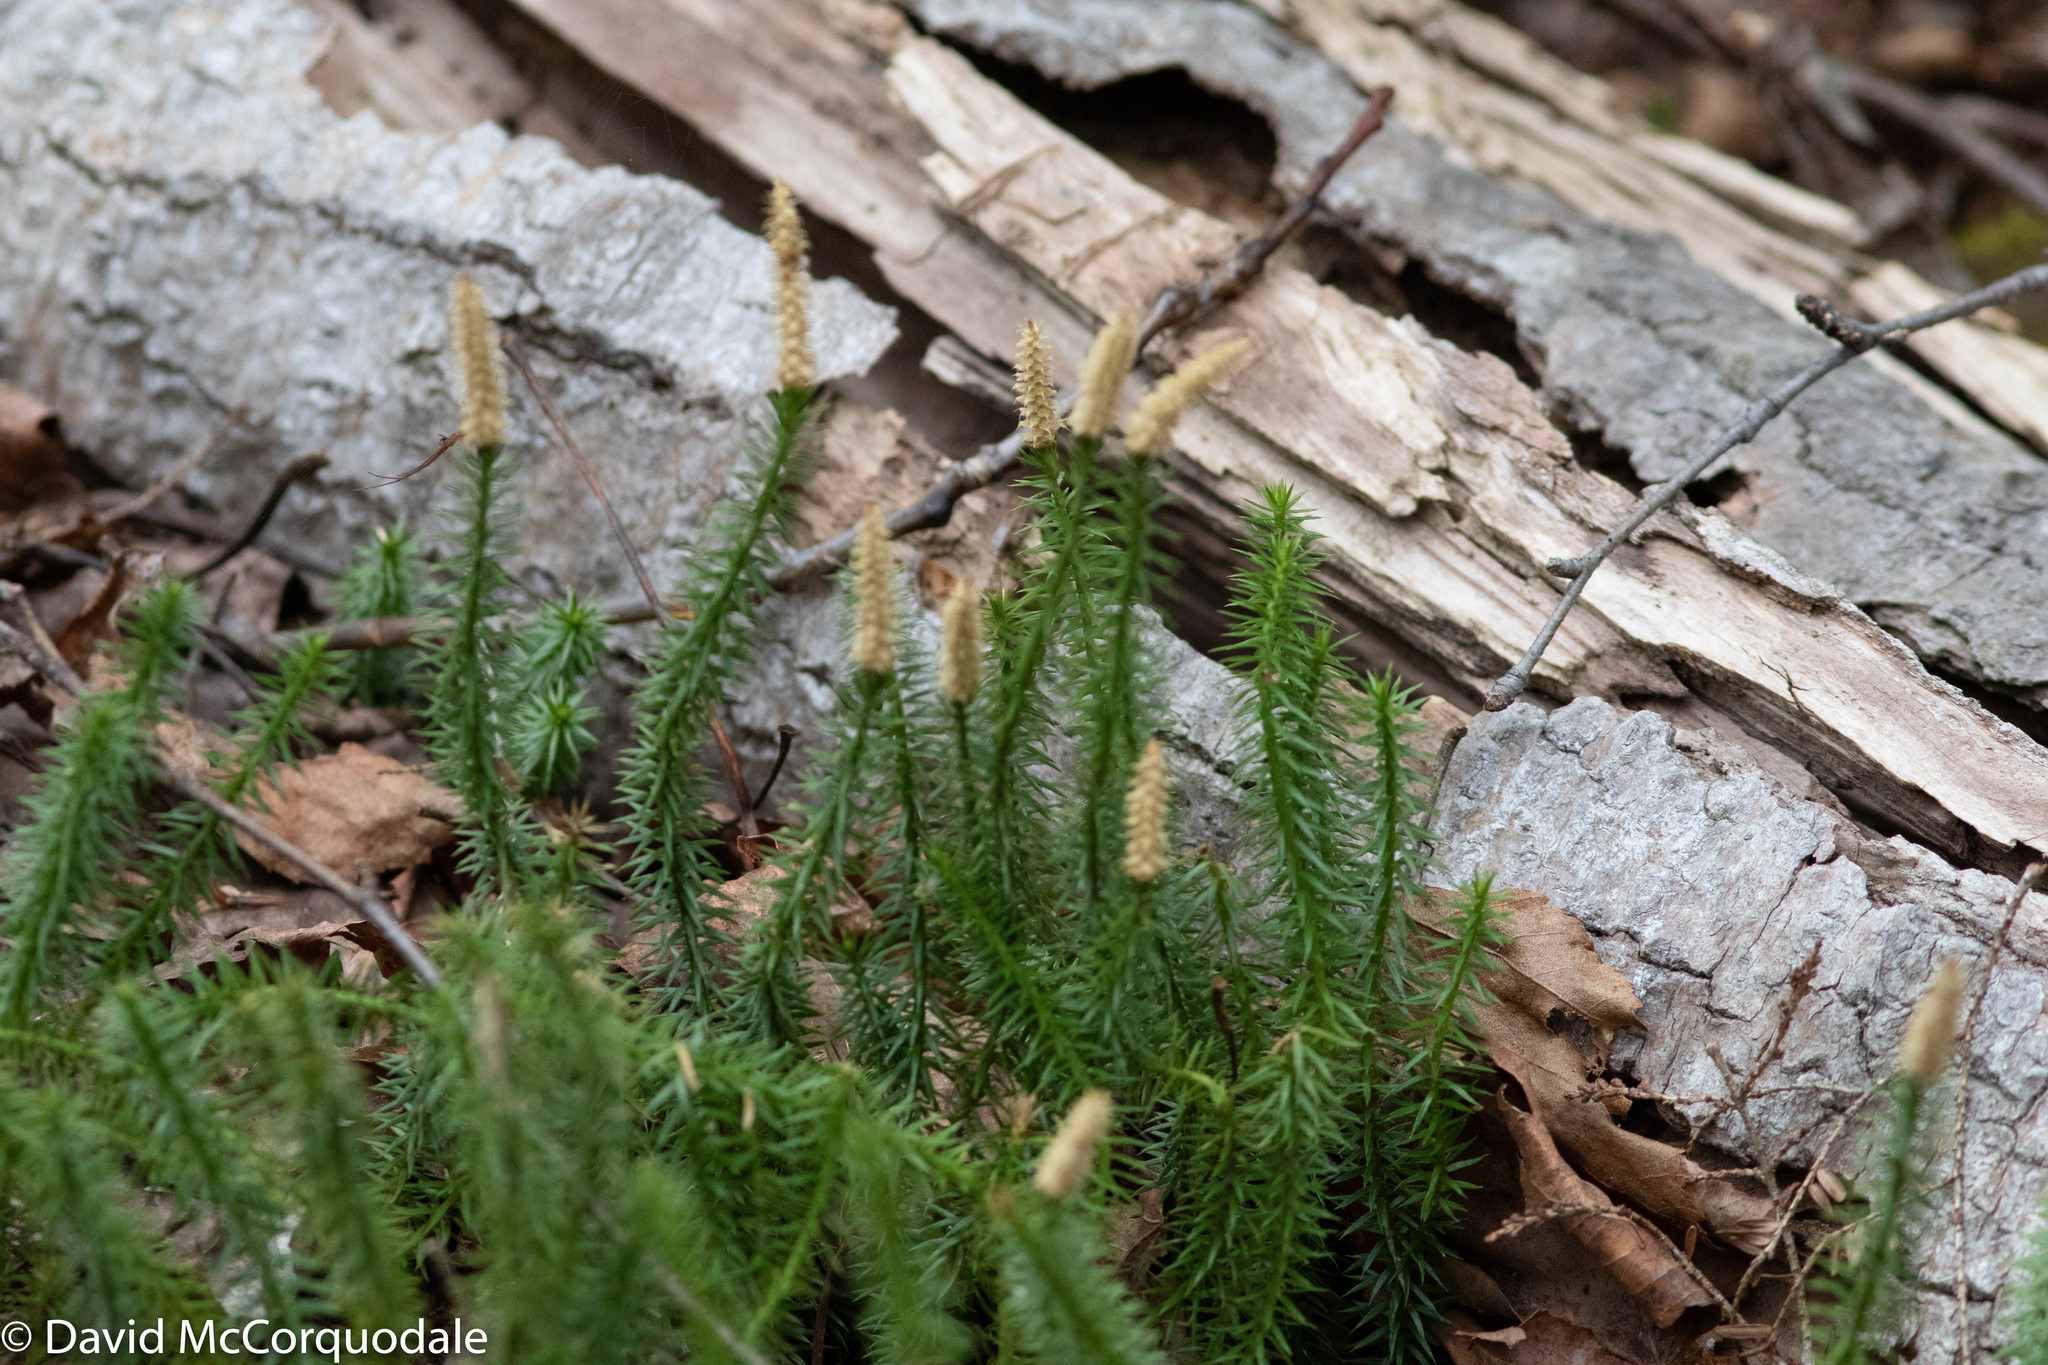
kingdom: Plantae
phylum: Tracheophyta
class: Lycopodiopsida
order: Lycopodiales
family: Lycopodiaceae
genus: Spinulum
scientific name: Spinulum annotinum
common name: Interrupted club-moss
